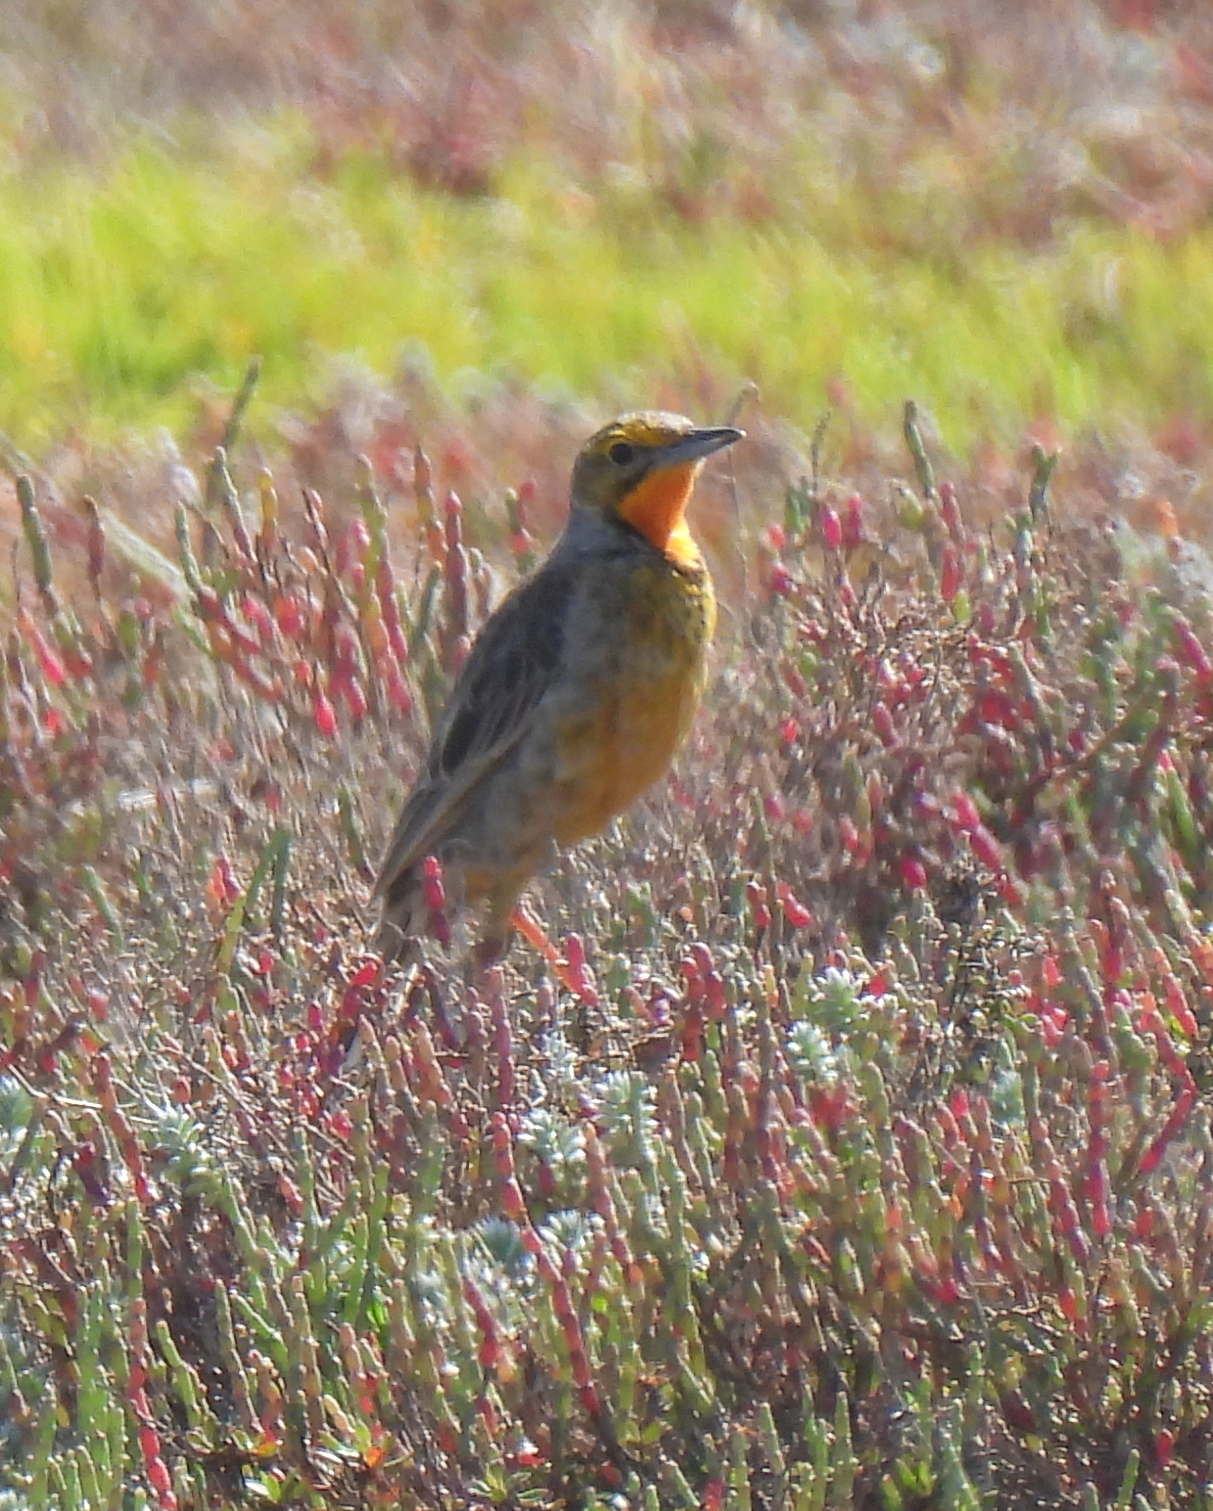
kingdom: Animalia
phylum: Chordata
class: Aves
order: Passeriformes
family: Motacillidae
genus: Macronyx
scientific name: Macronyx capensis
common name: Cape longclaw
